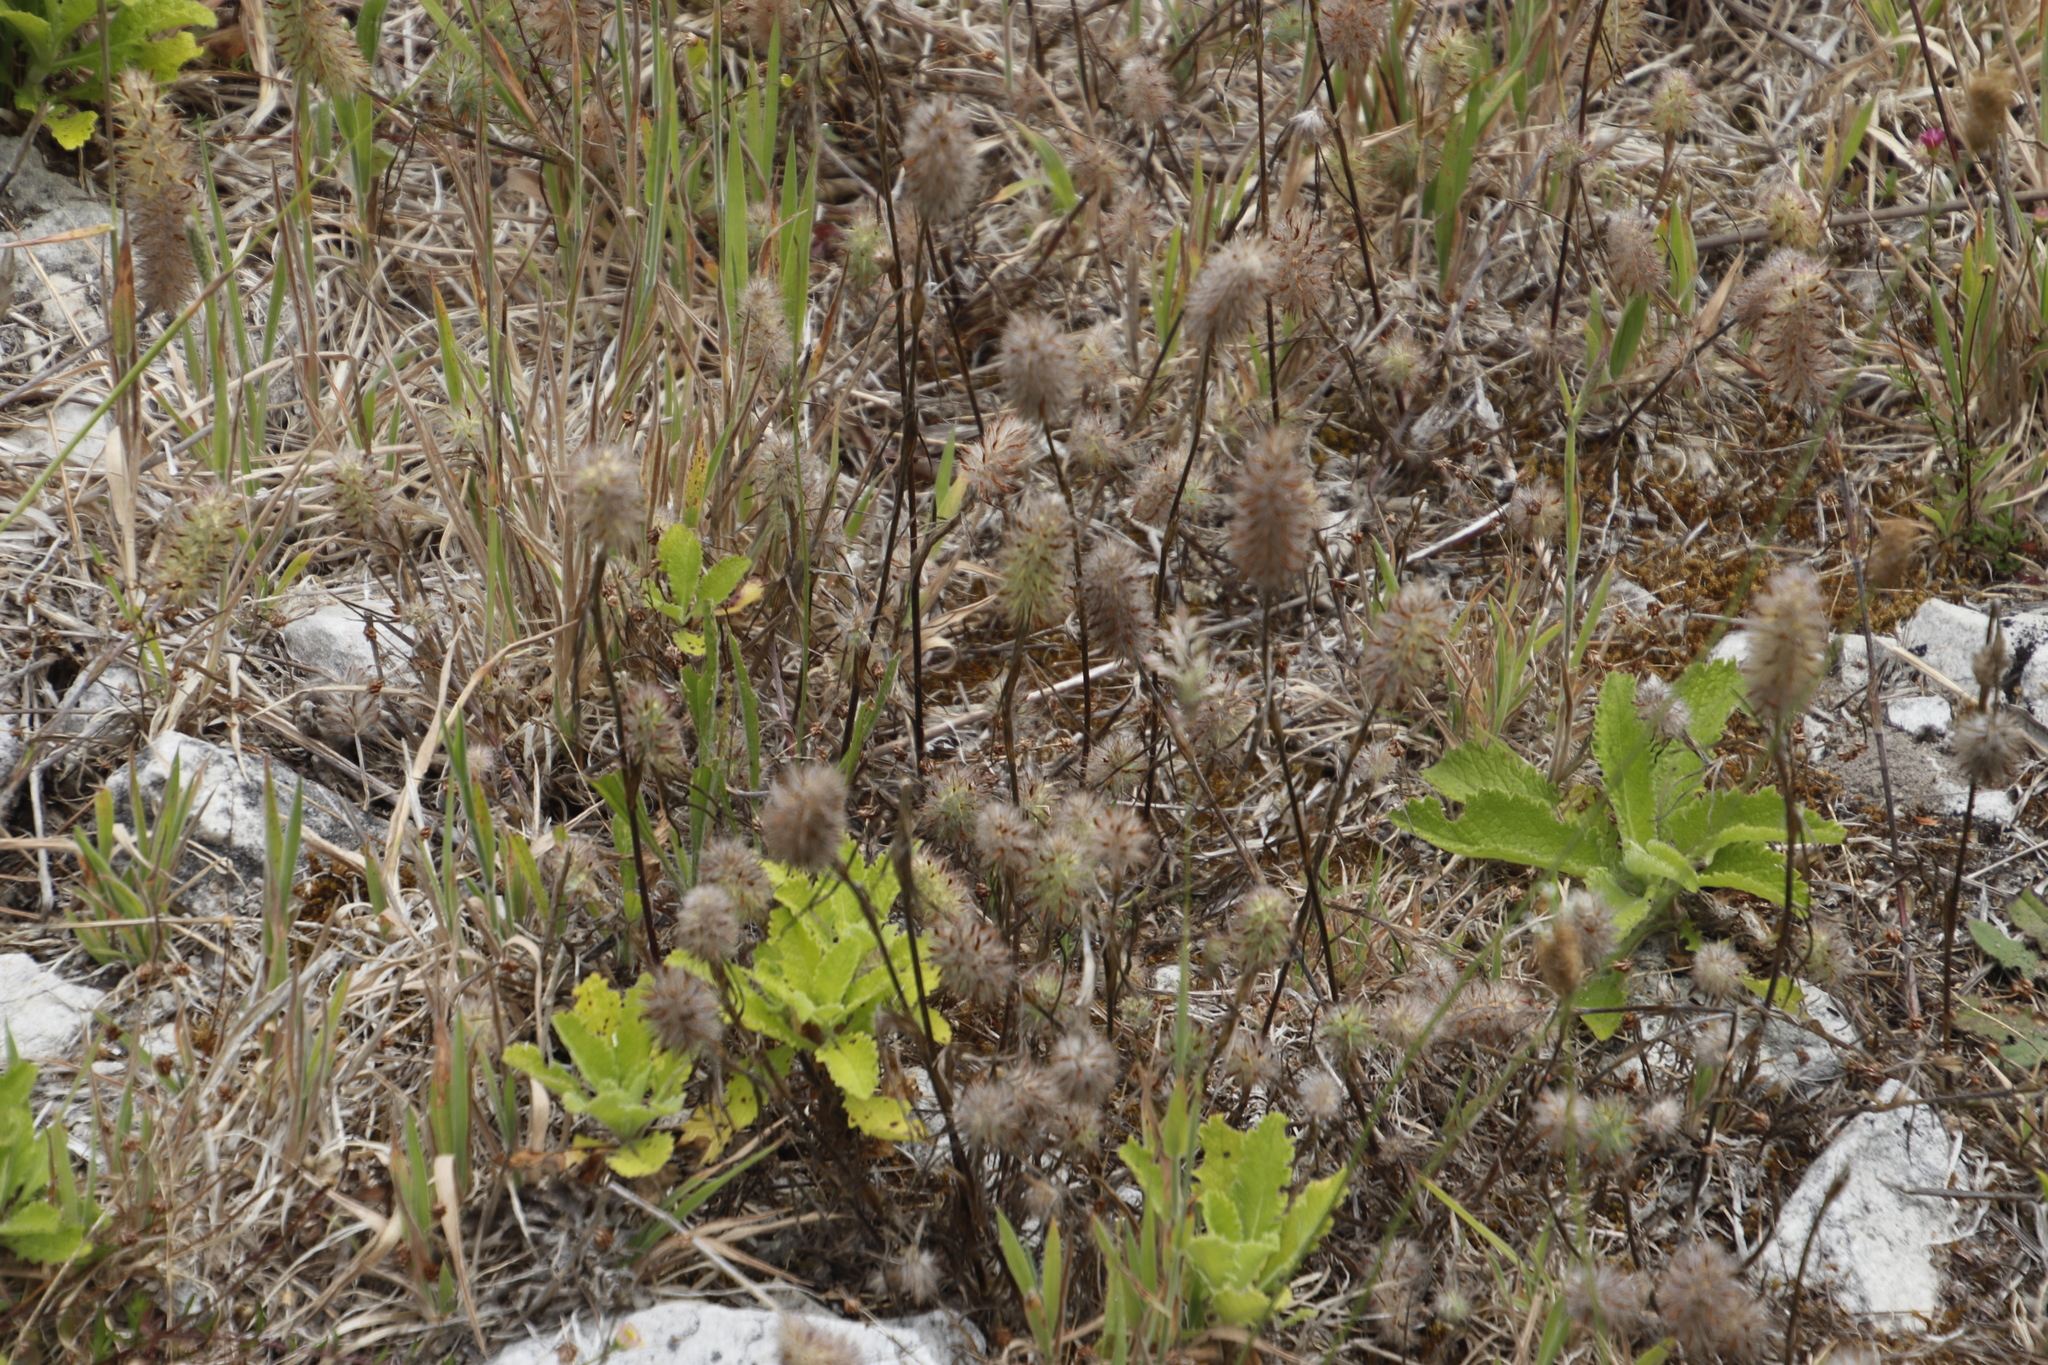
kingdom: Plantae
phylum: Tracheophyta
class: Magnoliopsida
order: Fabales
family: Fabaceae
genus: Trifolium
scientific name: Trifolium angustifolium
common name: Narrow clover
